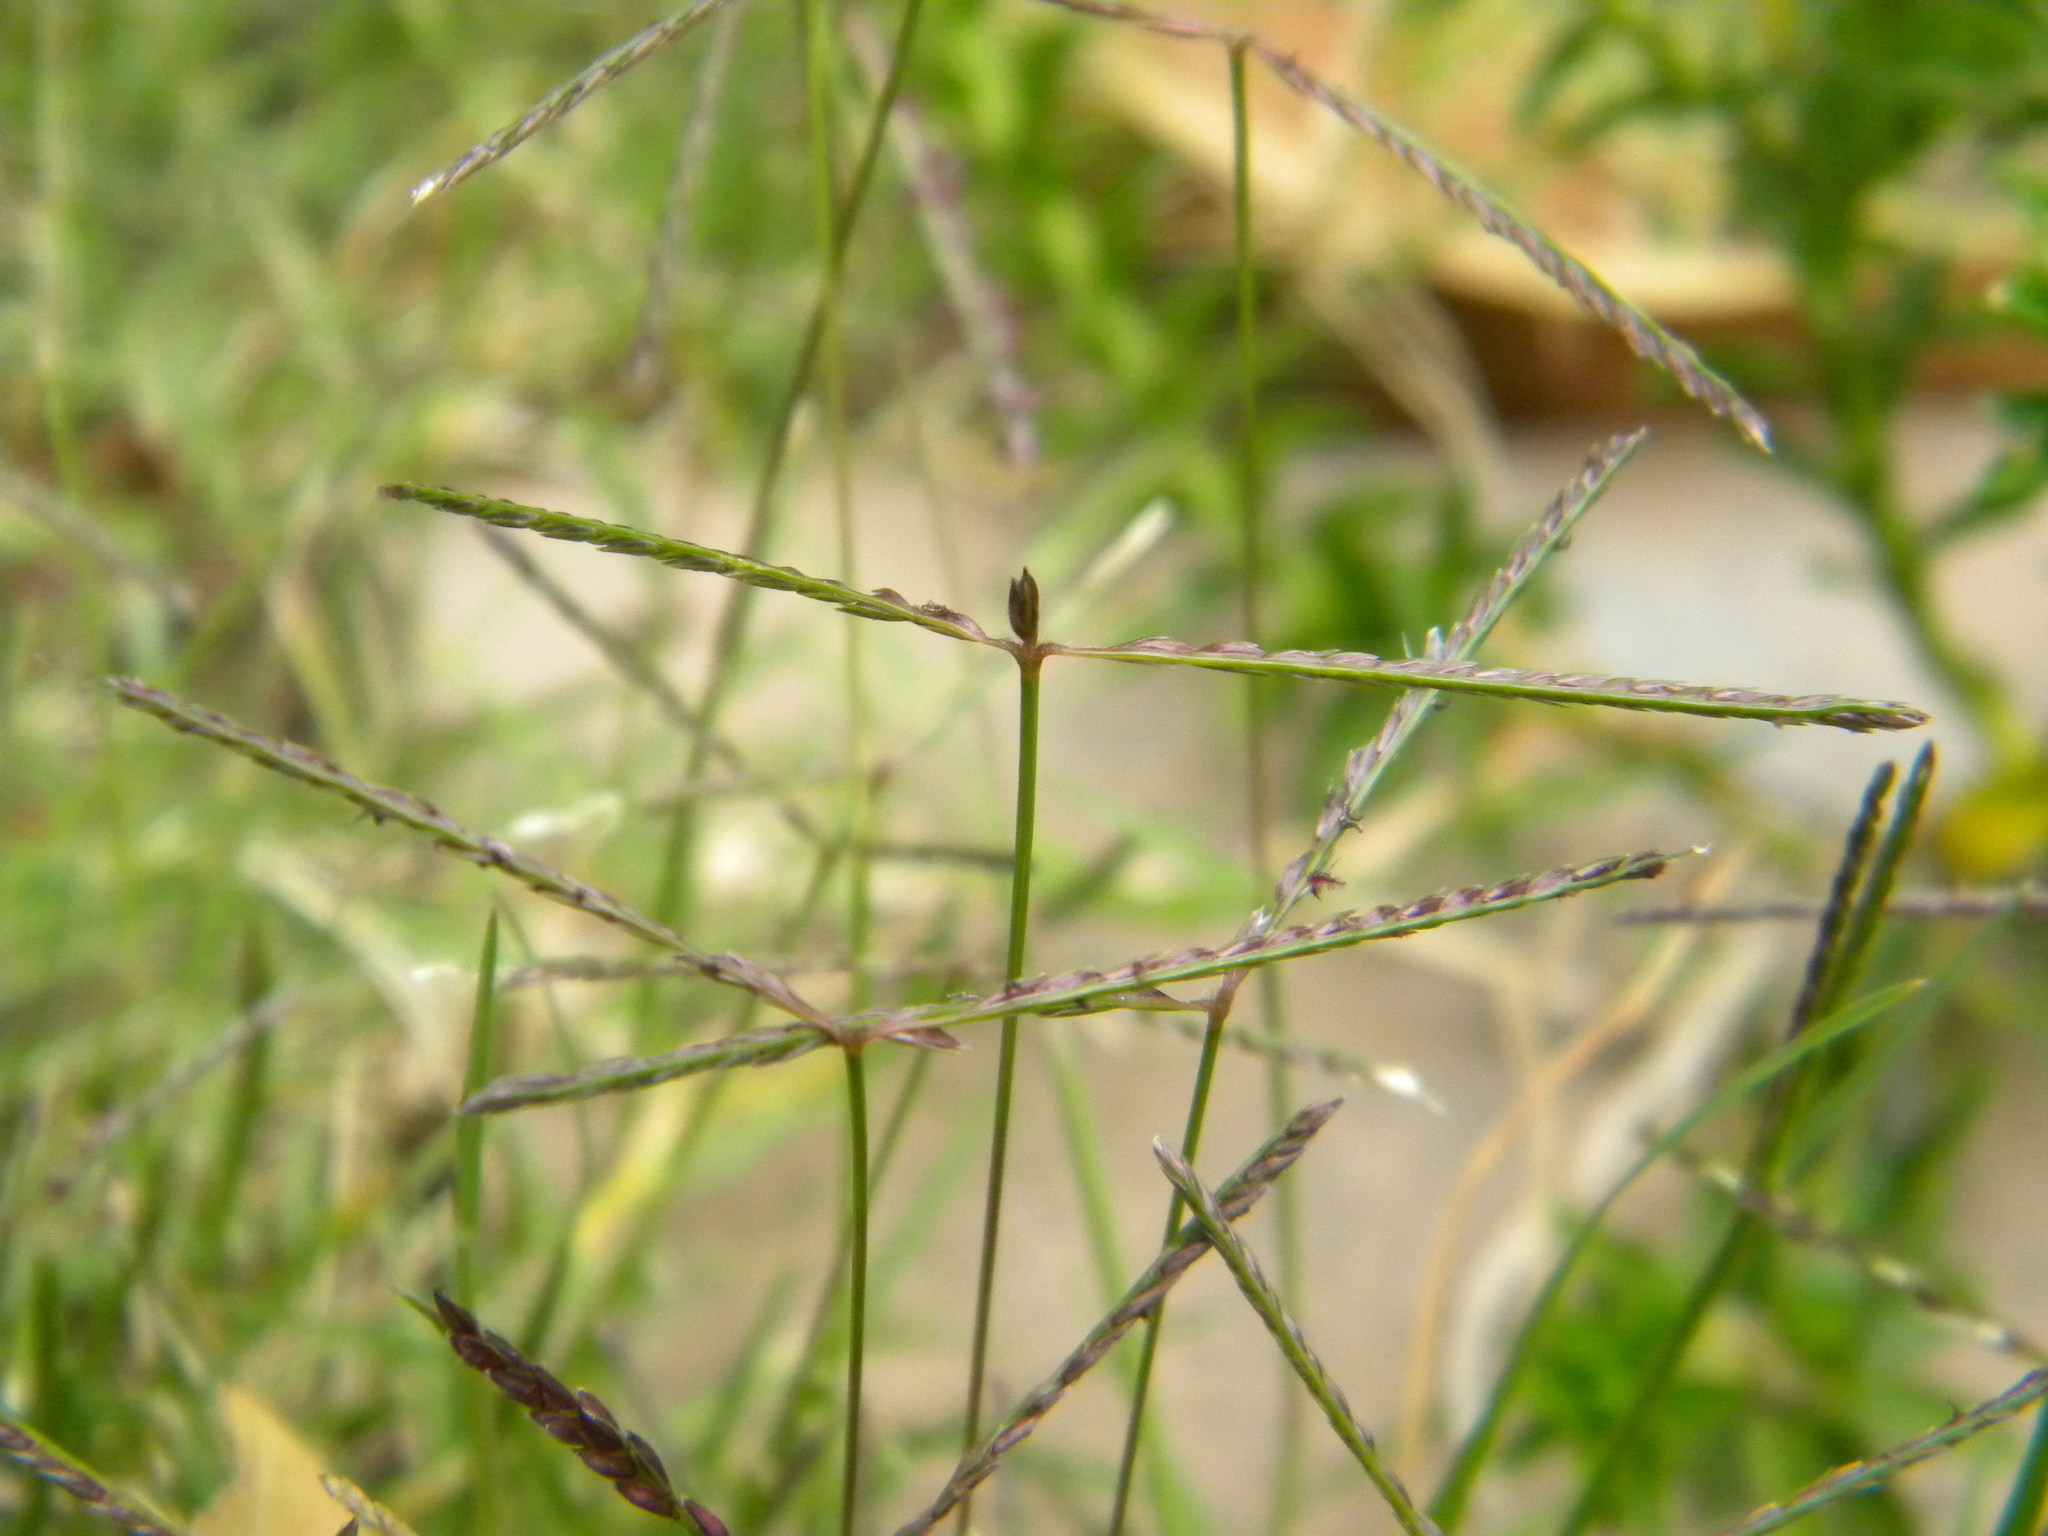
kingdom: Plantae
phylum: Tracheophyta
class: Liliopsida
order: Poales
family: Poaceae
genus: Cynodon
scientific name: Cynodon dactylon
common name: Bermuda grass
